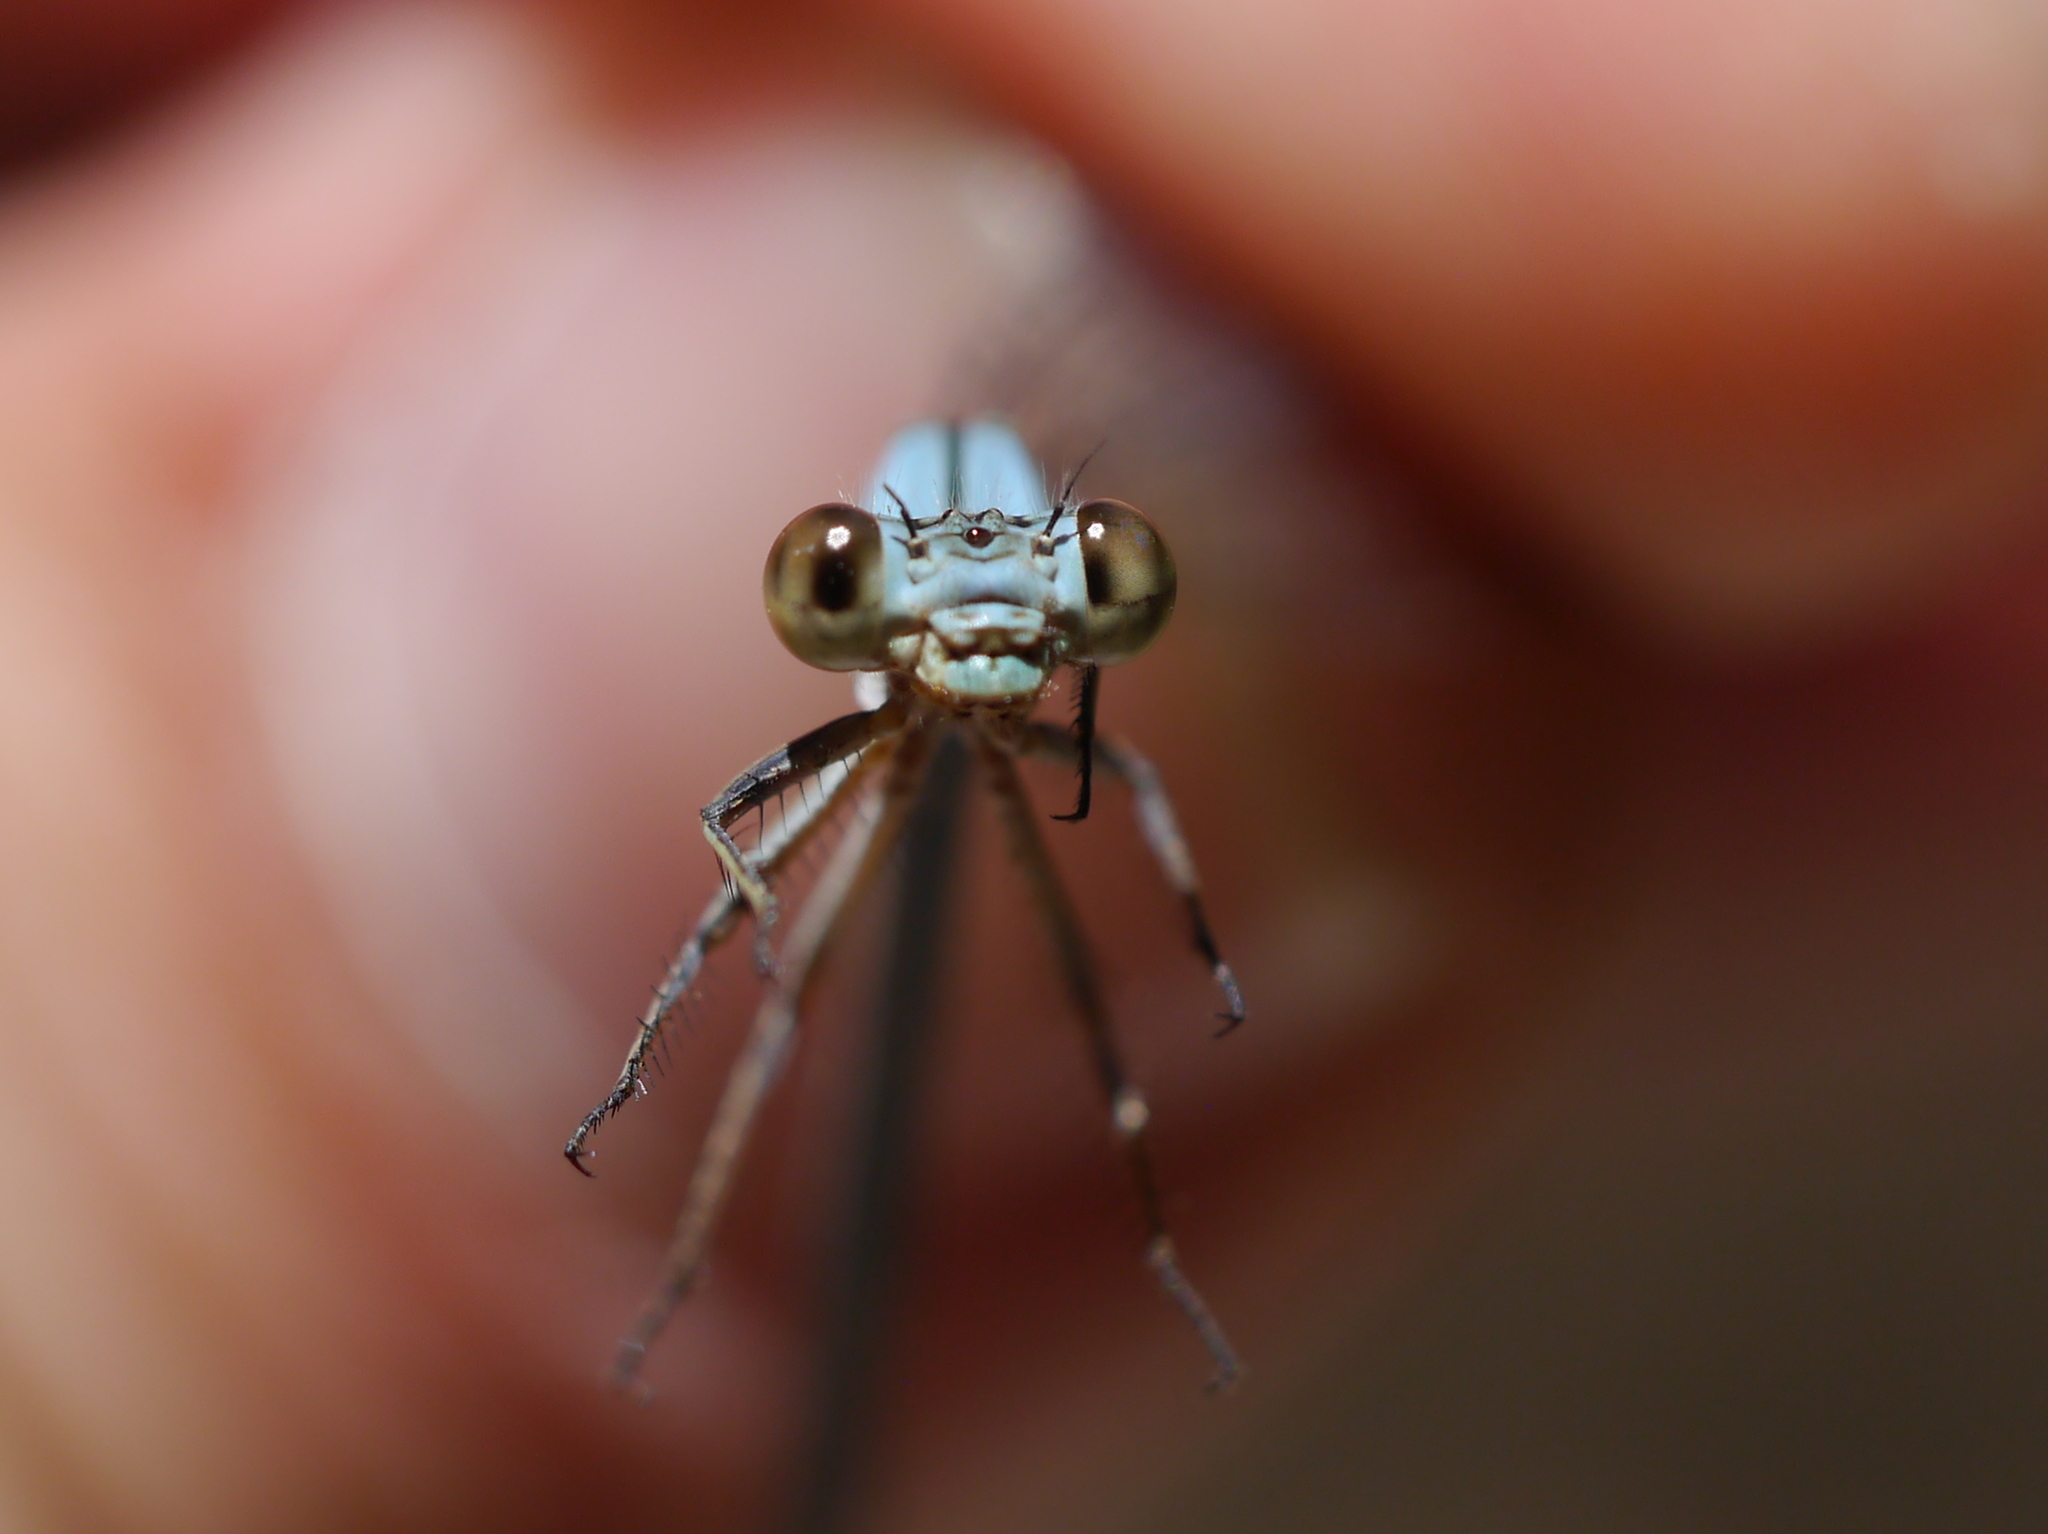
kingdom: Animalia
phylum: Arthropoda
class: Insecta
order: Odonata
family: Coenagrionidae
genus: Argia
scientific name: Argia moesta
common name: Powdered dancer
